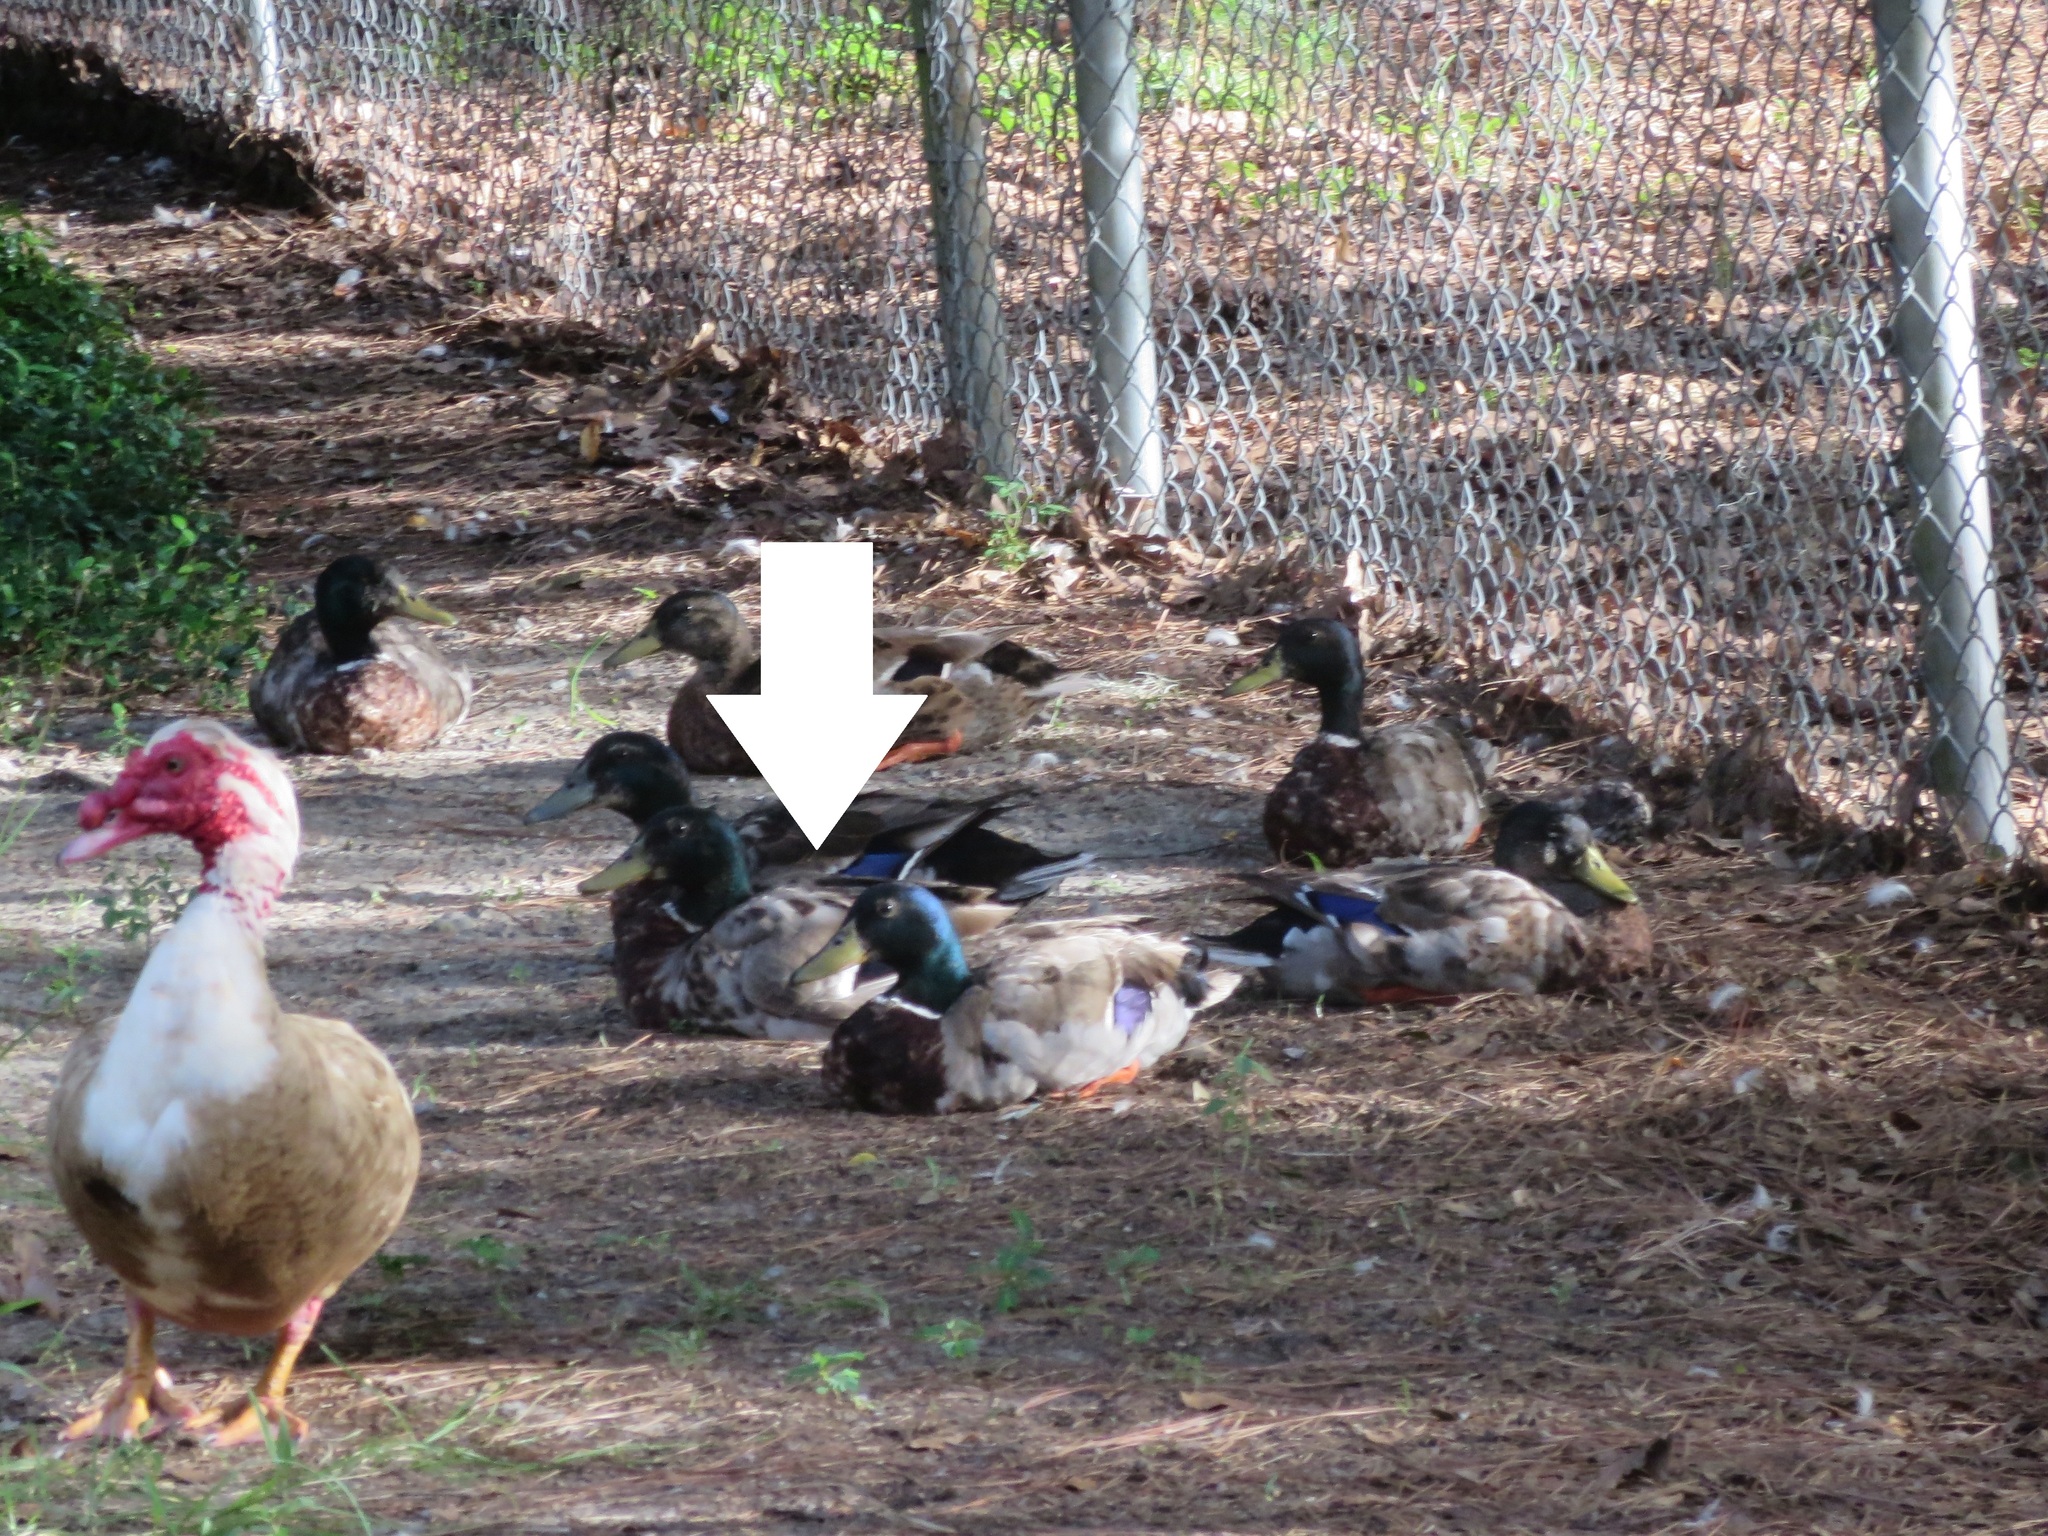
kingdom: Animalia
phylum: Chordata
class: Aves
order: Anseriformes
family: Anatidae
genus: Anas
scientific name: Anas platyrhynchos
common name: Mallard
